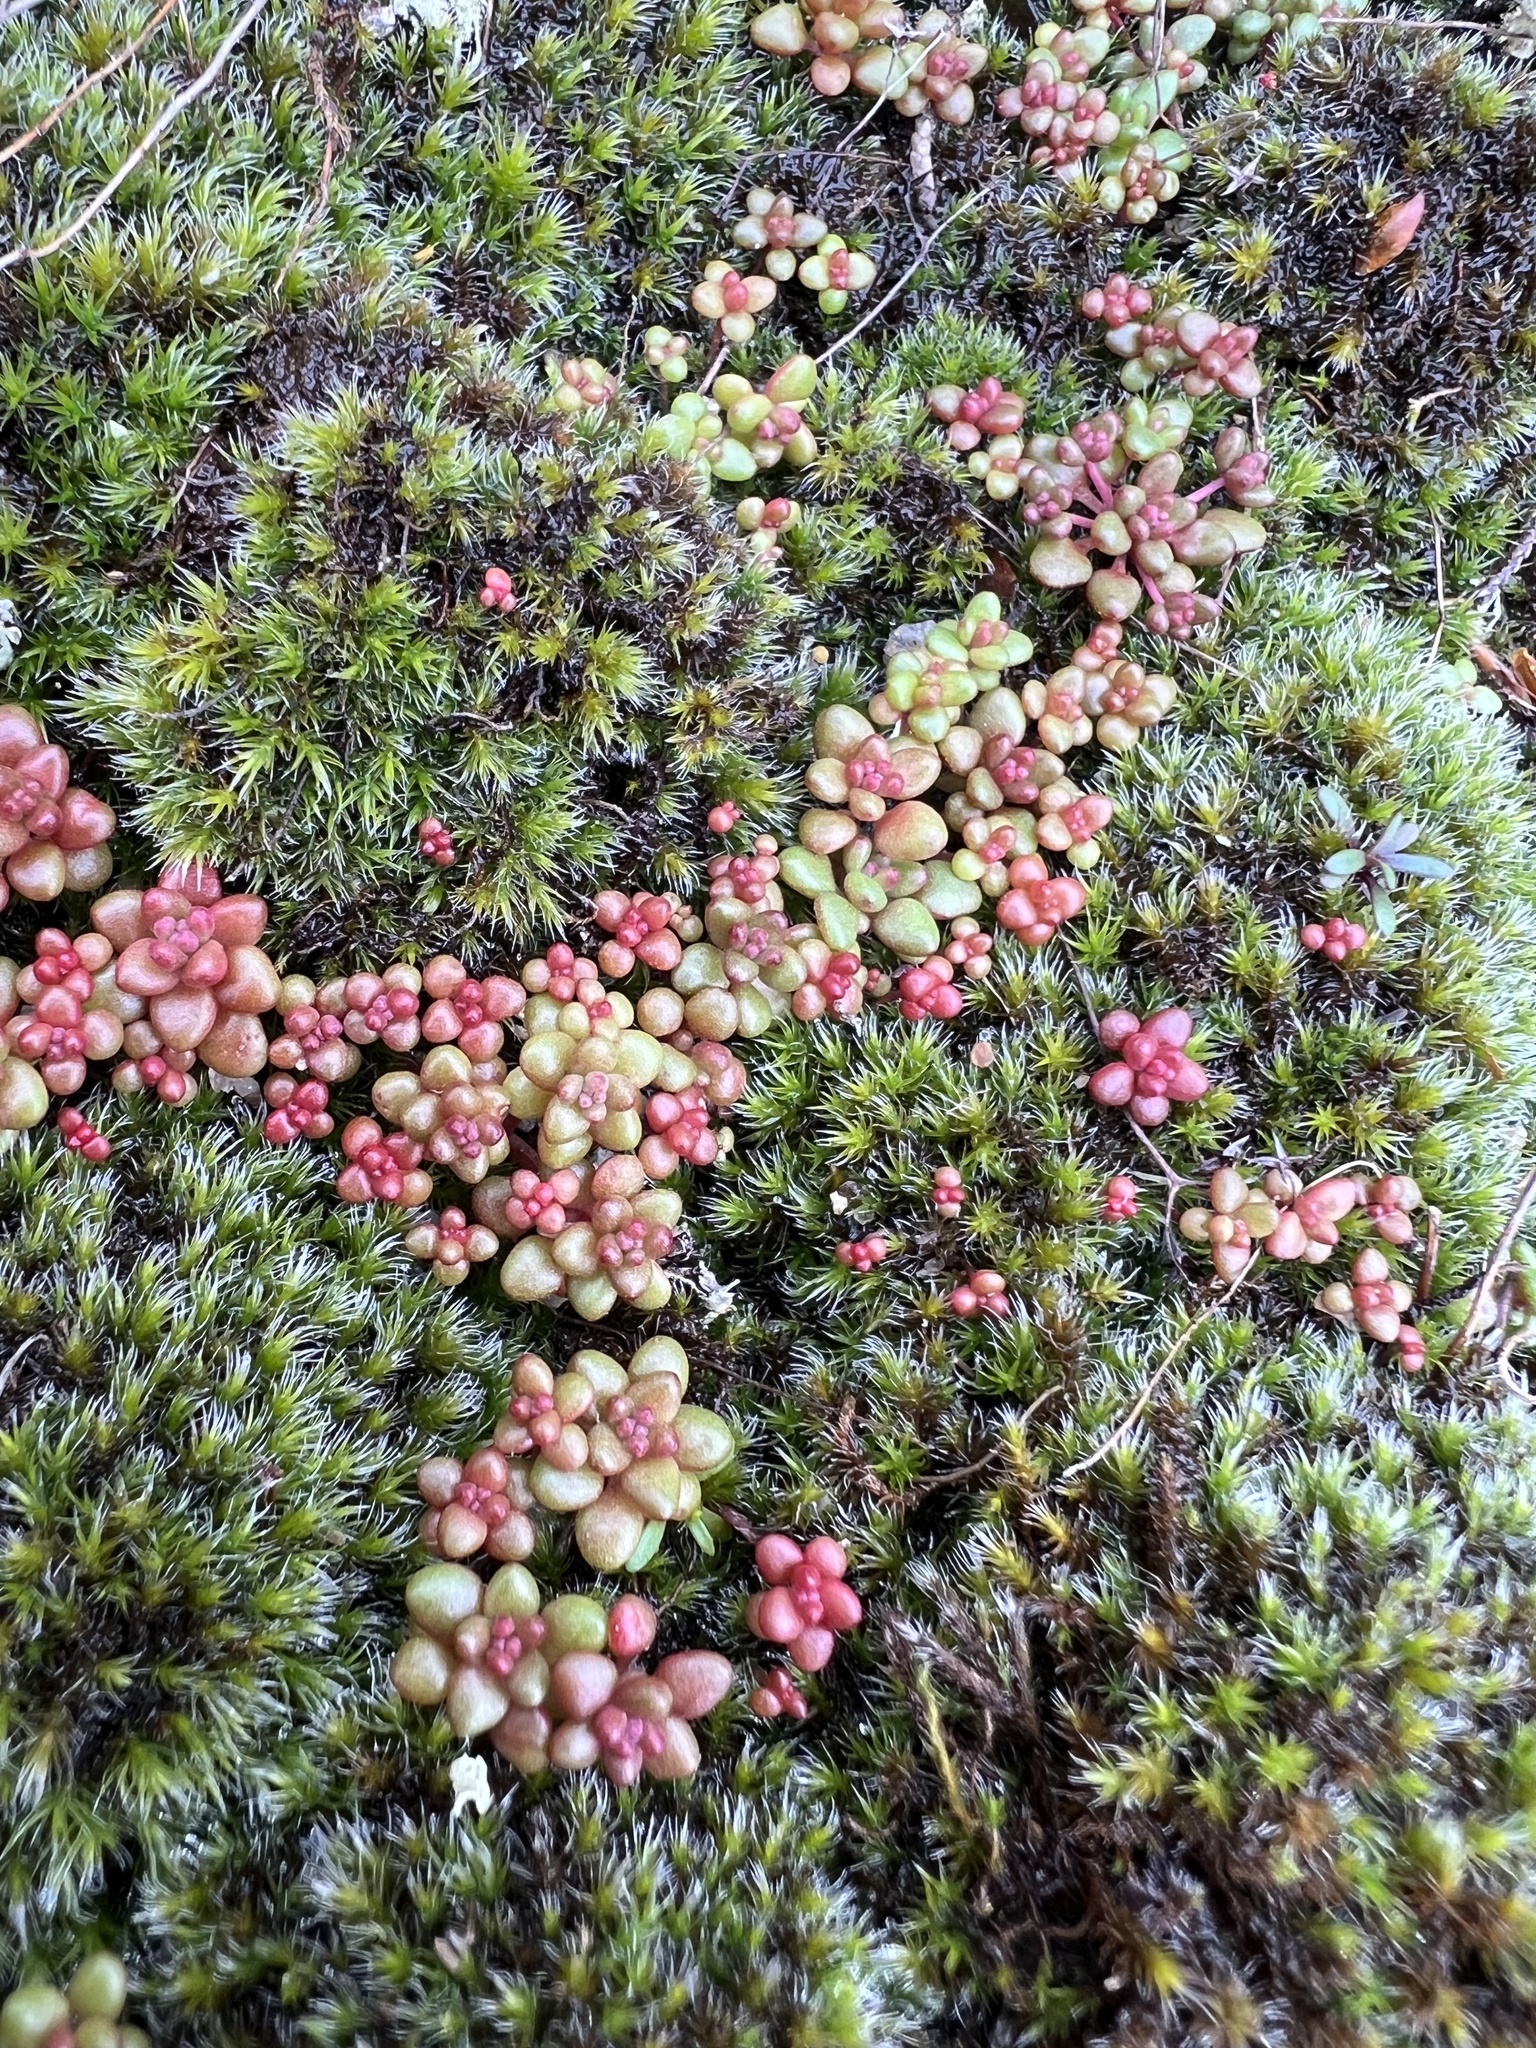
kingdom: Plantae
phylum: Tracheophyta
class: Magnoliopsida
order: Saxifragales
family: Crassulaceae
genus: Sedum
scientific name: Sedum smallii
